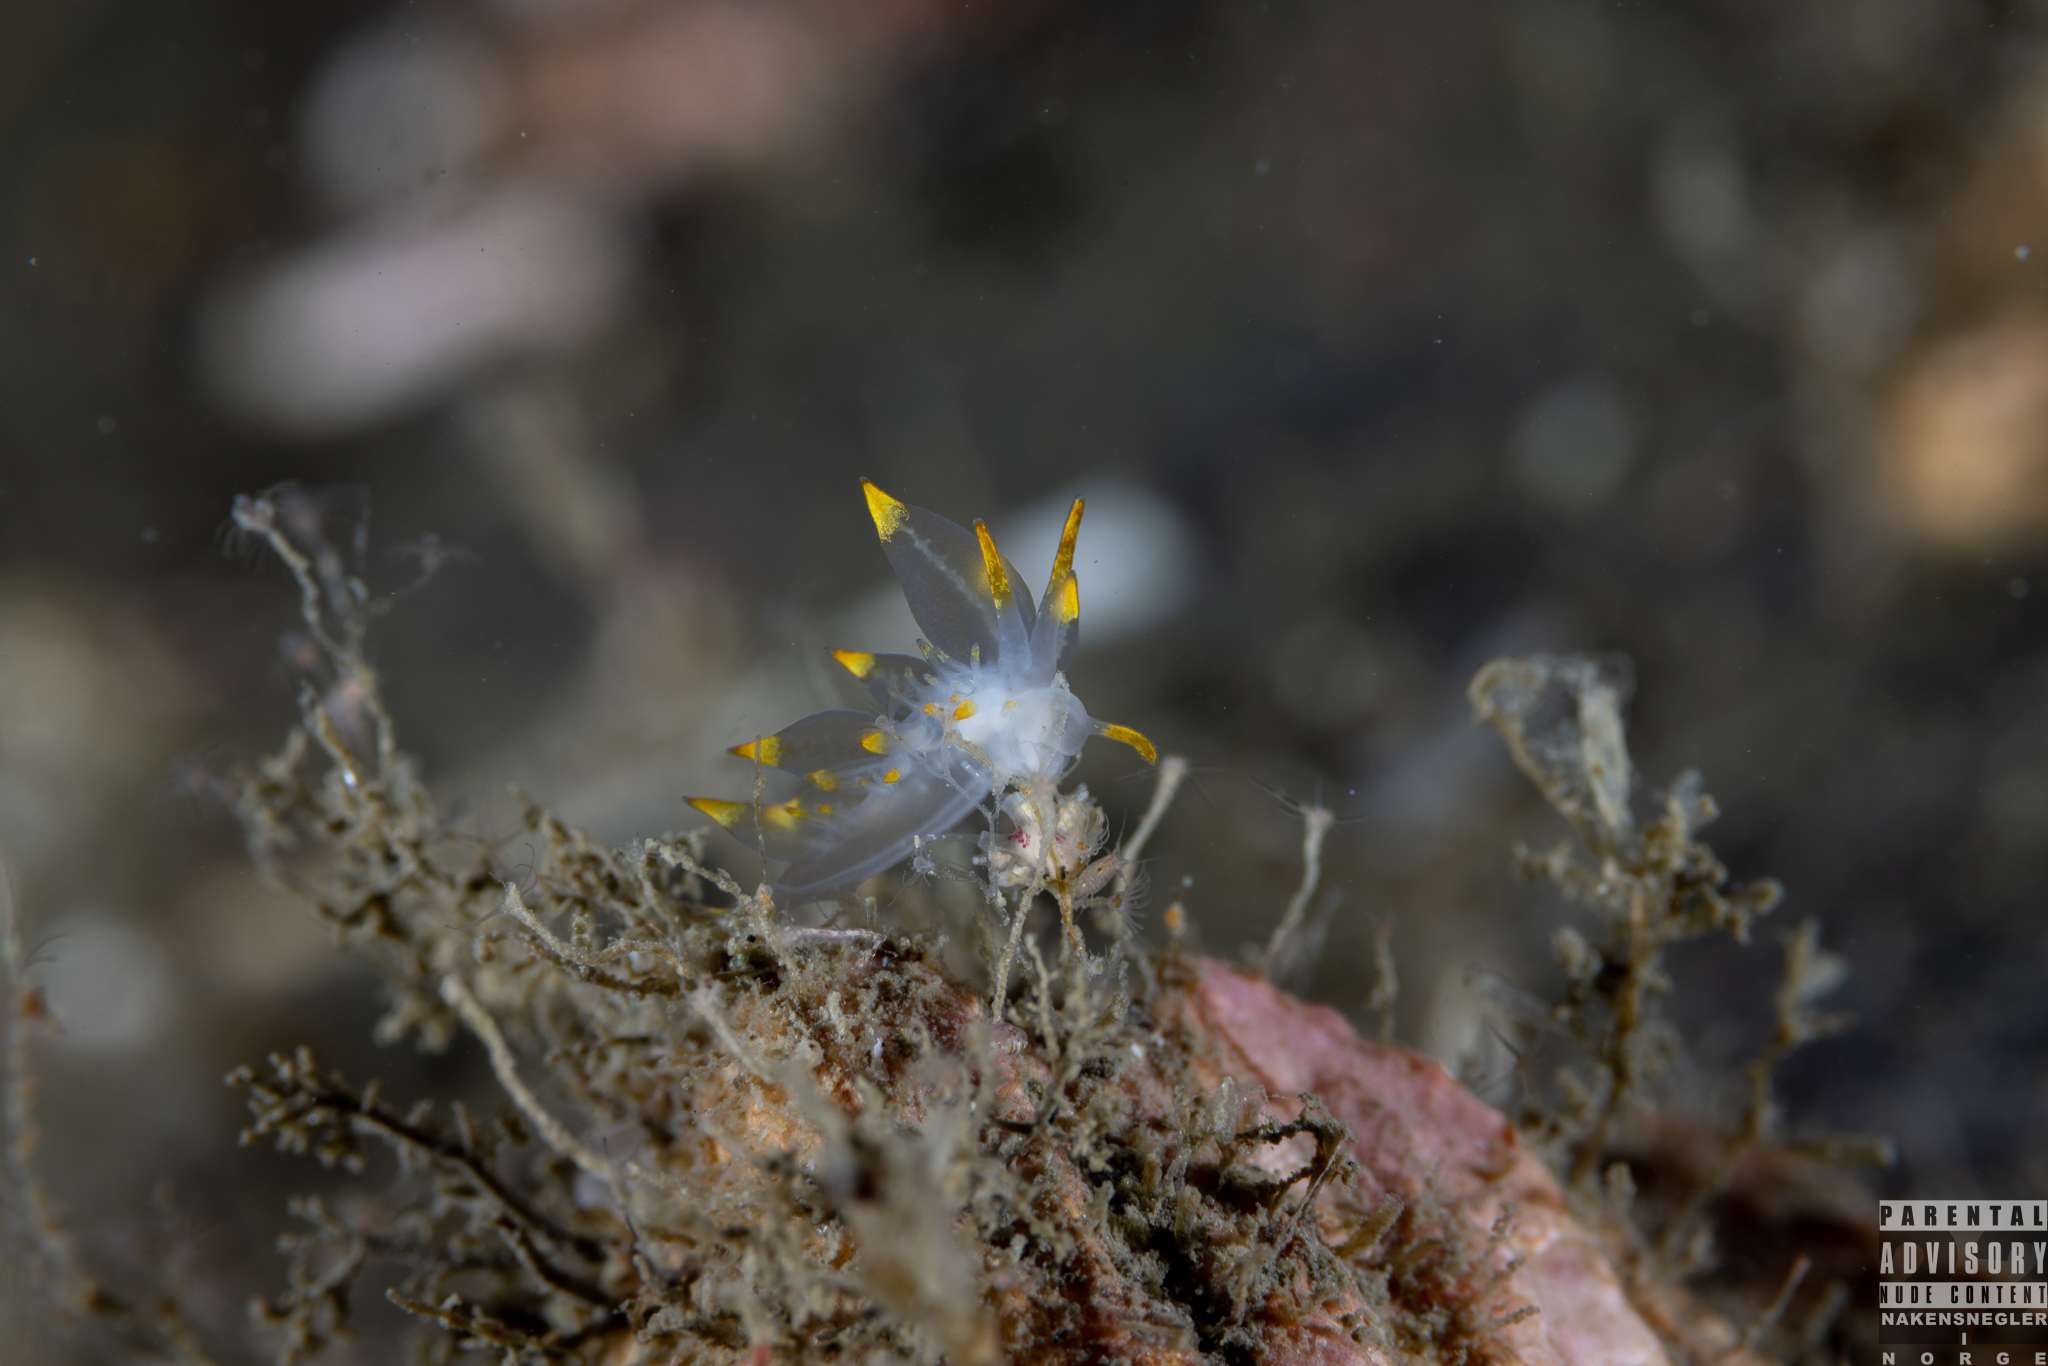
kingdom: Animalia
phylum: Mollusca
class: Gastropoda
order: Nudibranchia
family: Eubranchidae
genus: Amphorina
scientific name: Amphorina farrani
